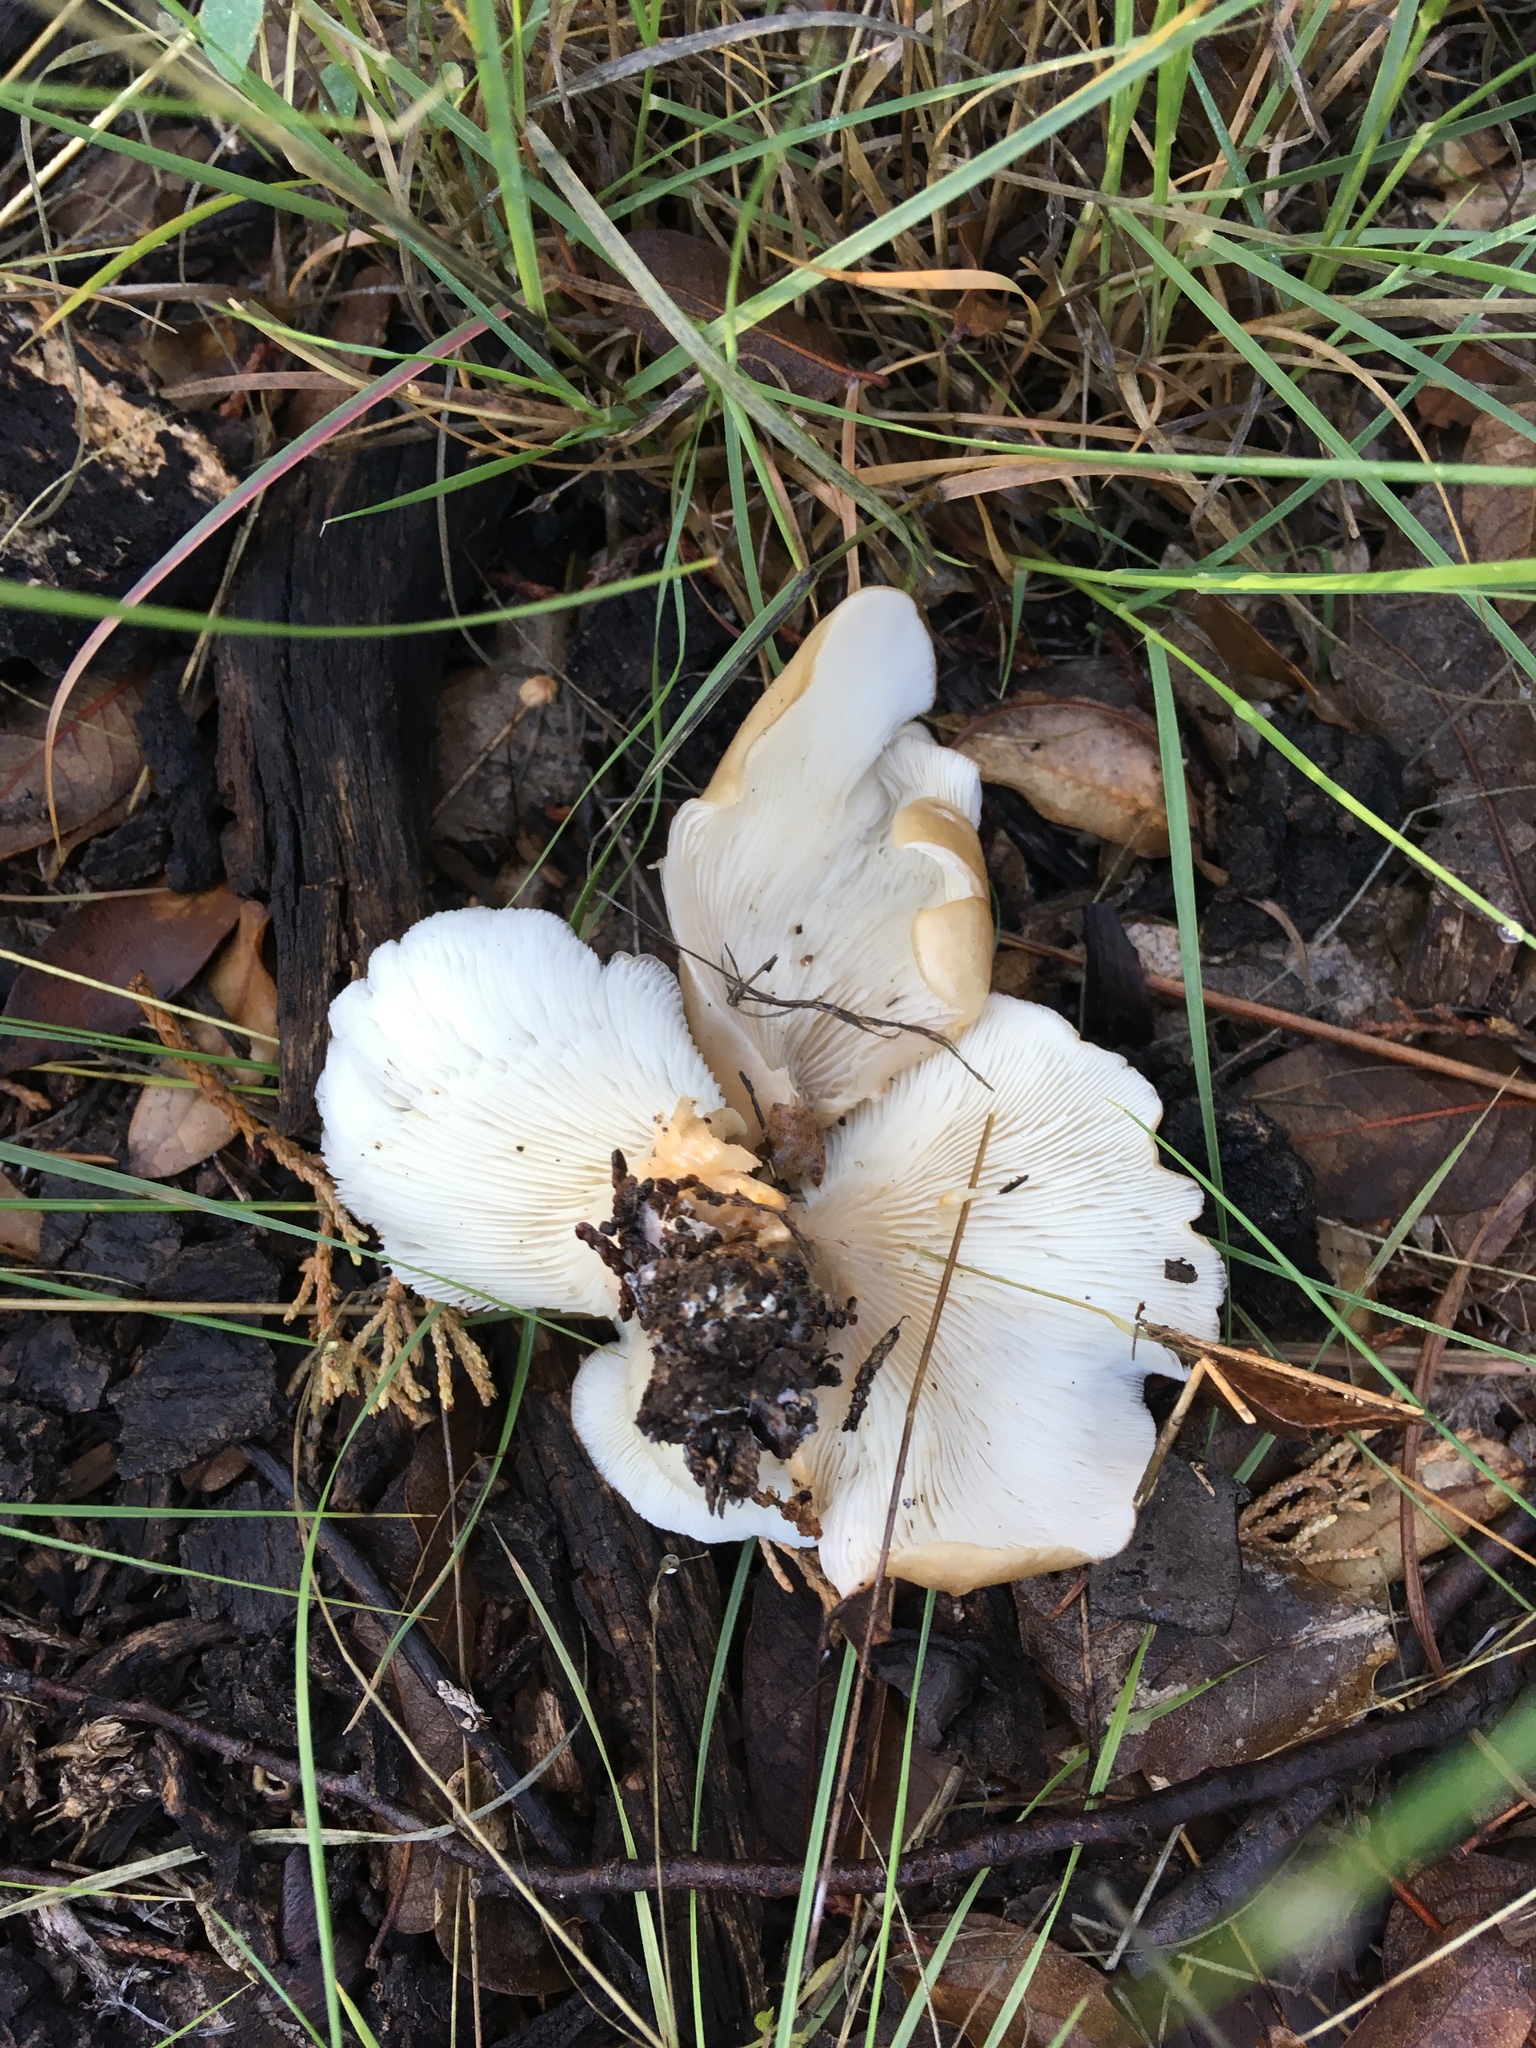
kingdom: Fungi
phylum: Basidiomycota
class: Agaricomycetes
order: Agaricales
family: Pleurotaceae
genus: Hohenbuehelia
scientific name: Hohenbuehelia petaloides
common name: Shoehorn oyster
